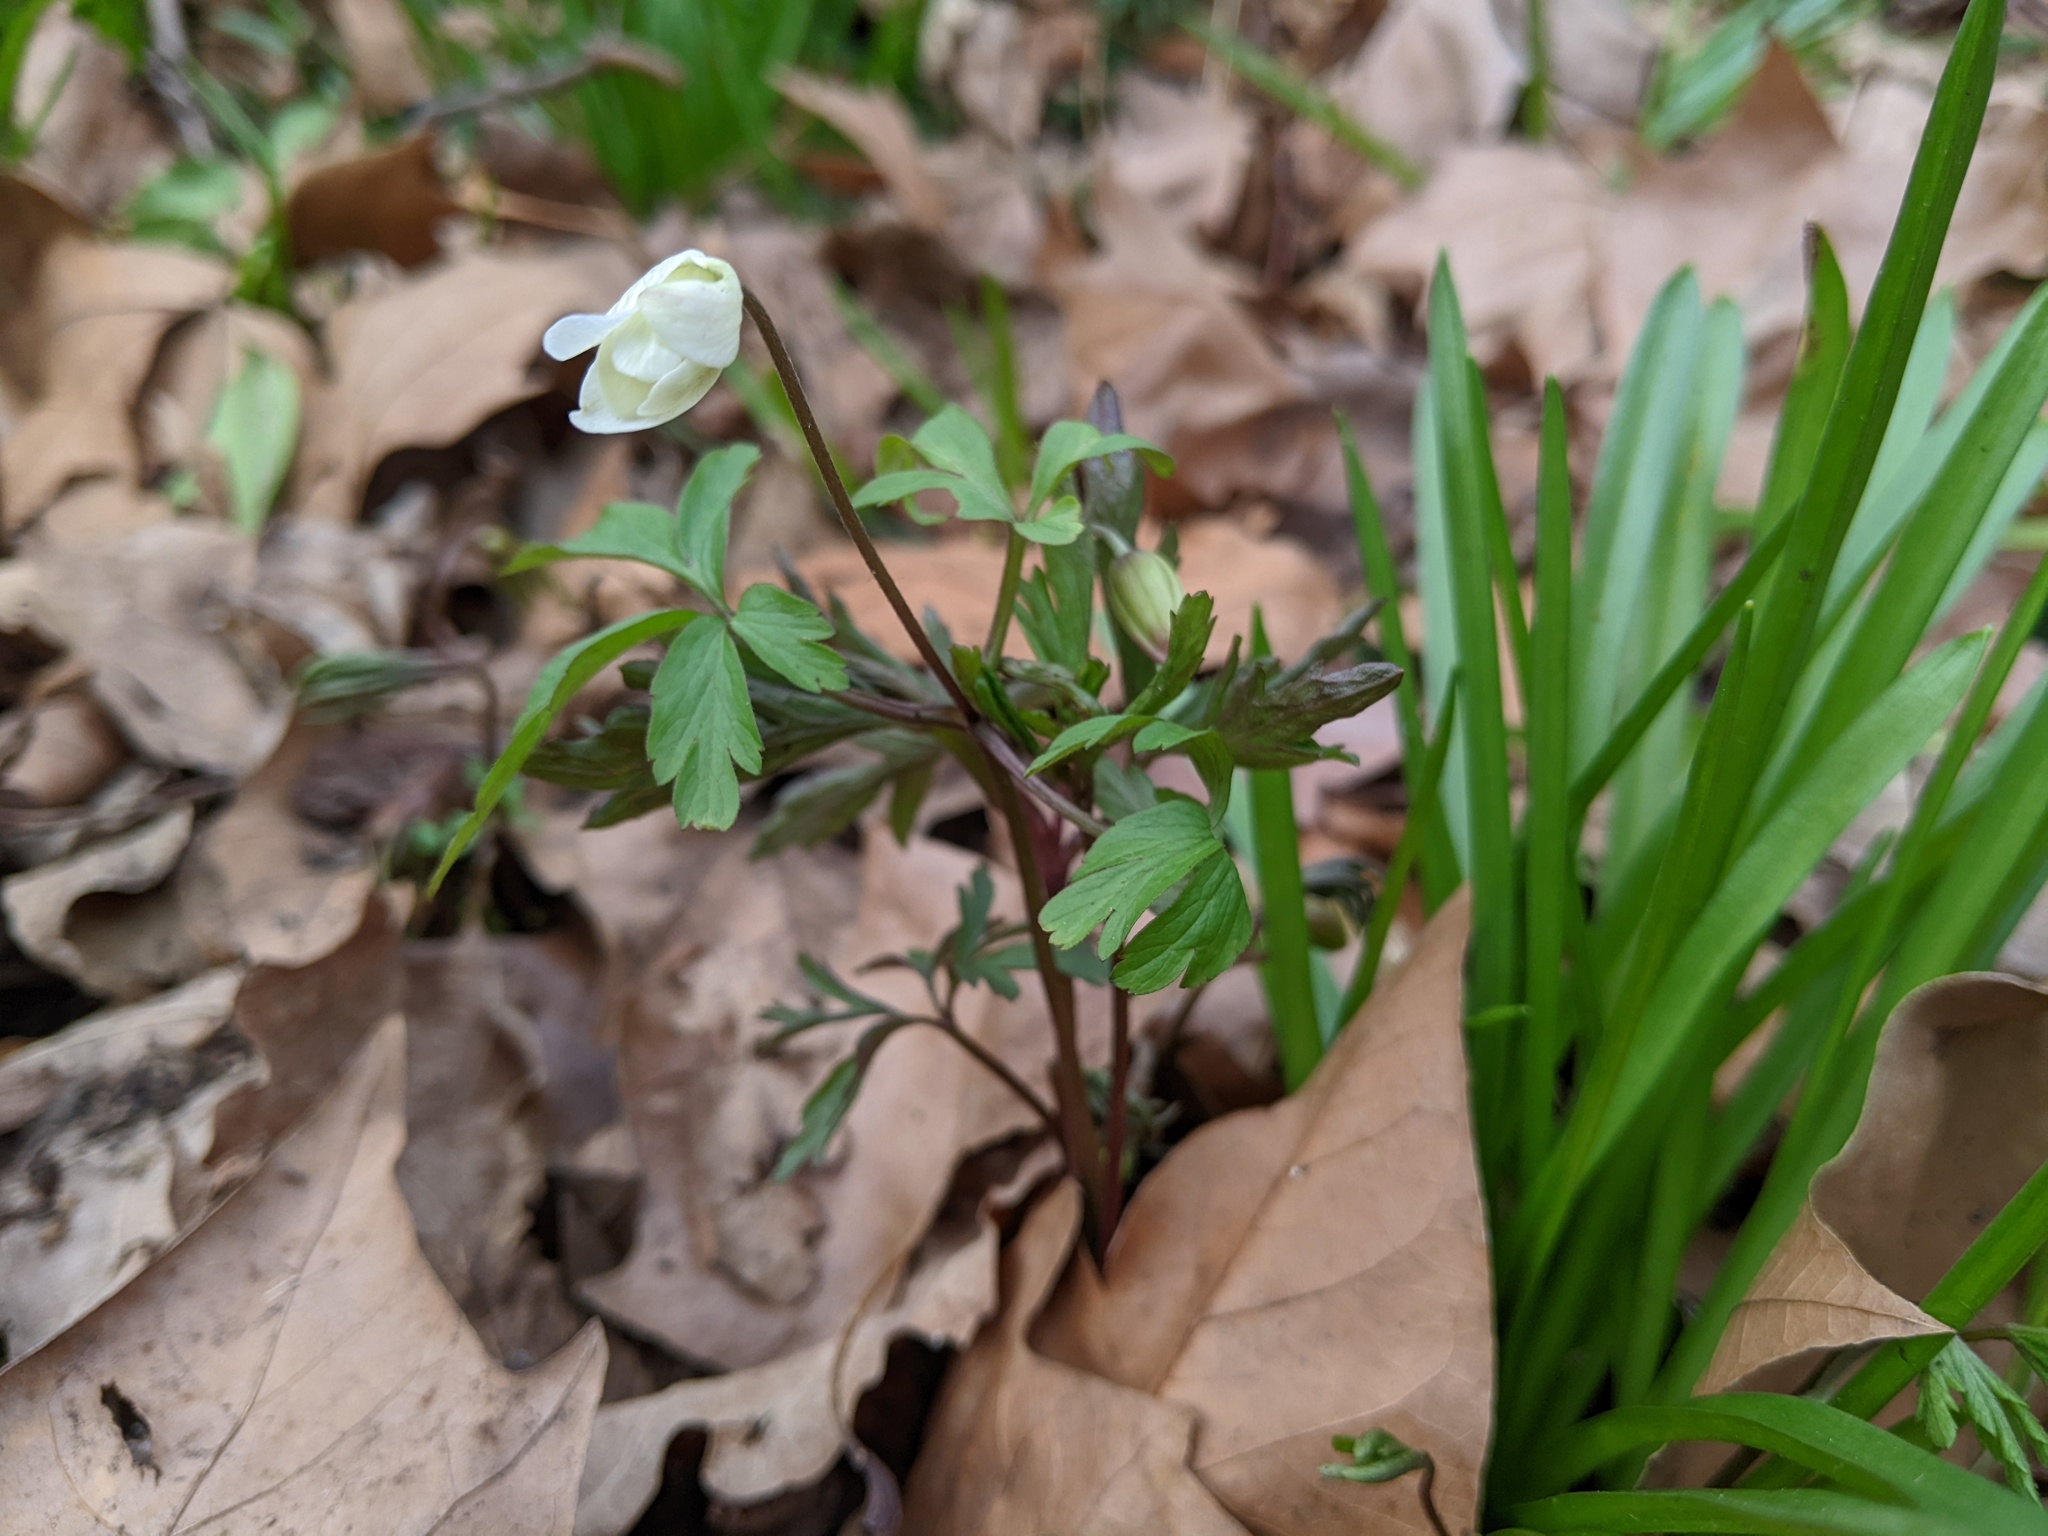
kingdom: Plantae
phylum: Tracheophyta
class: Magnoliopsida
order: Ranunculales
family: Ranunculaceae
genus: Anemone
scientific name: Anemone nemorosa
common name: Wood anemone
